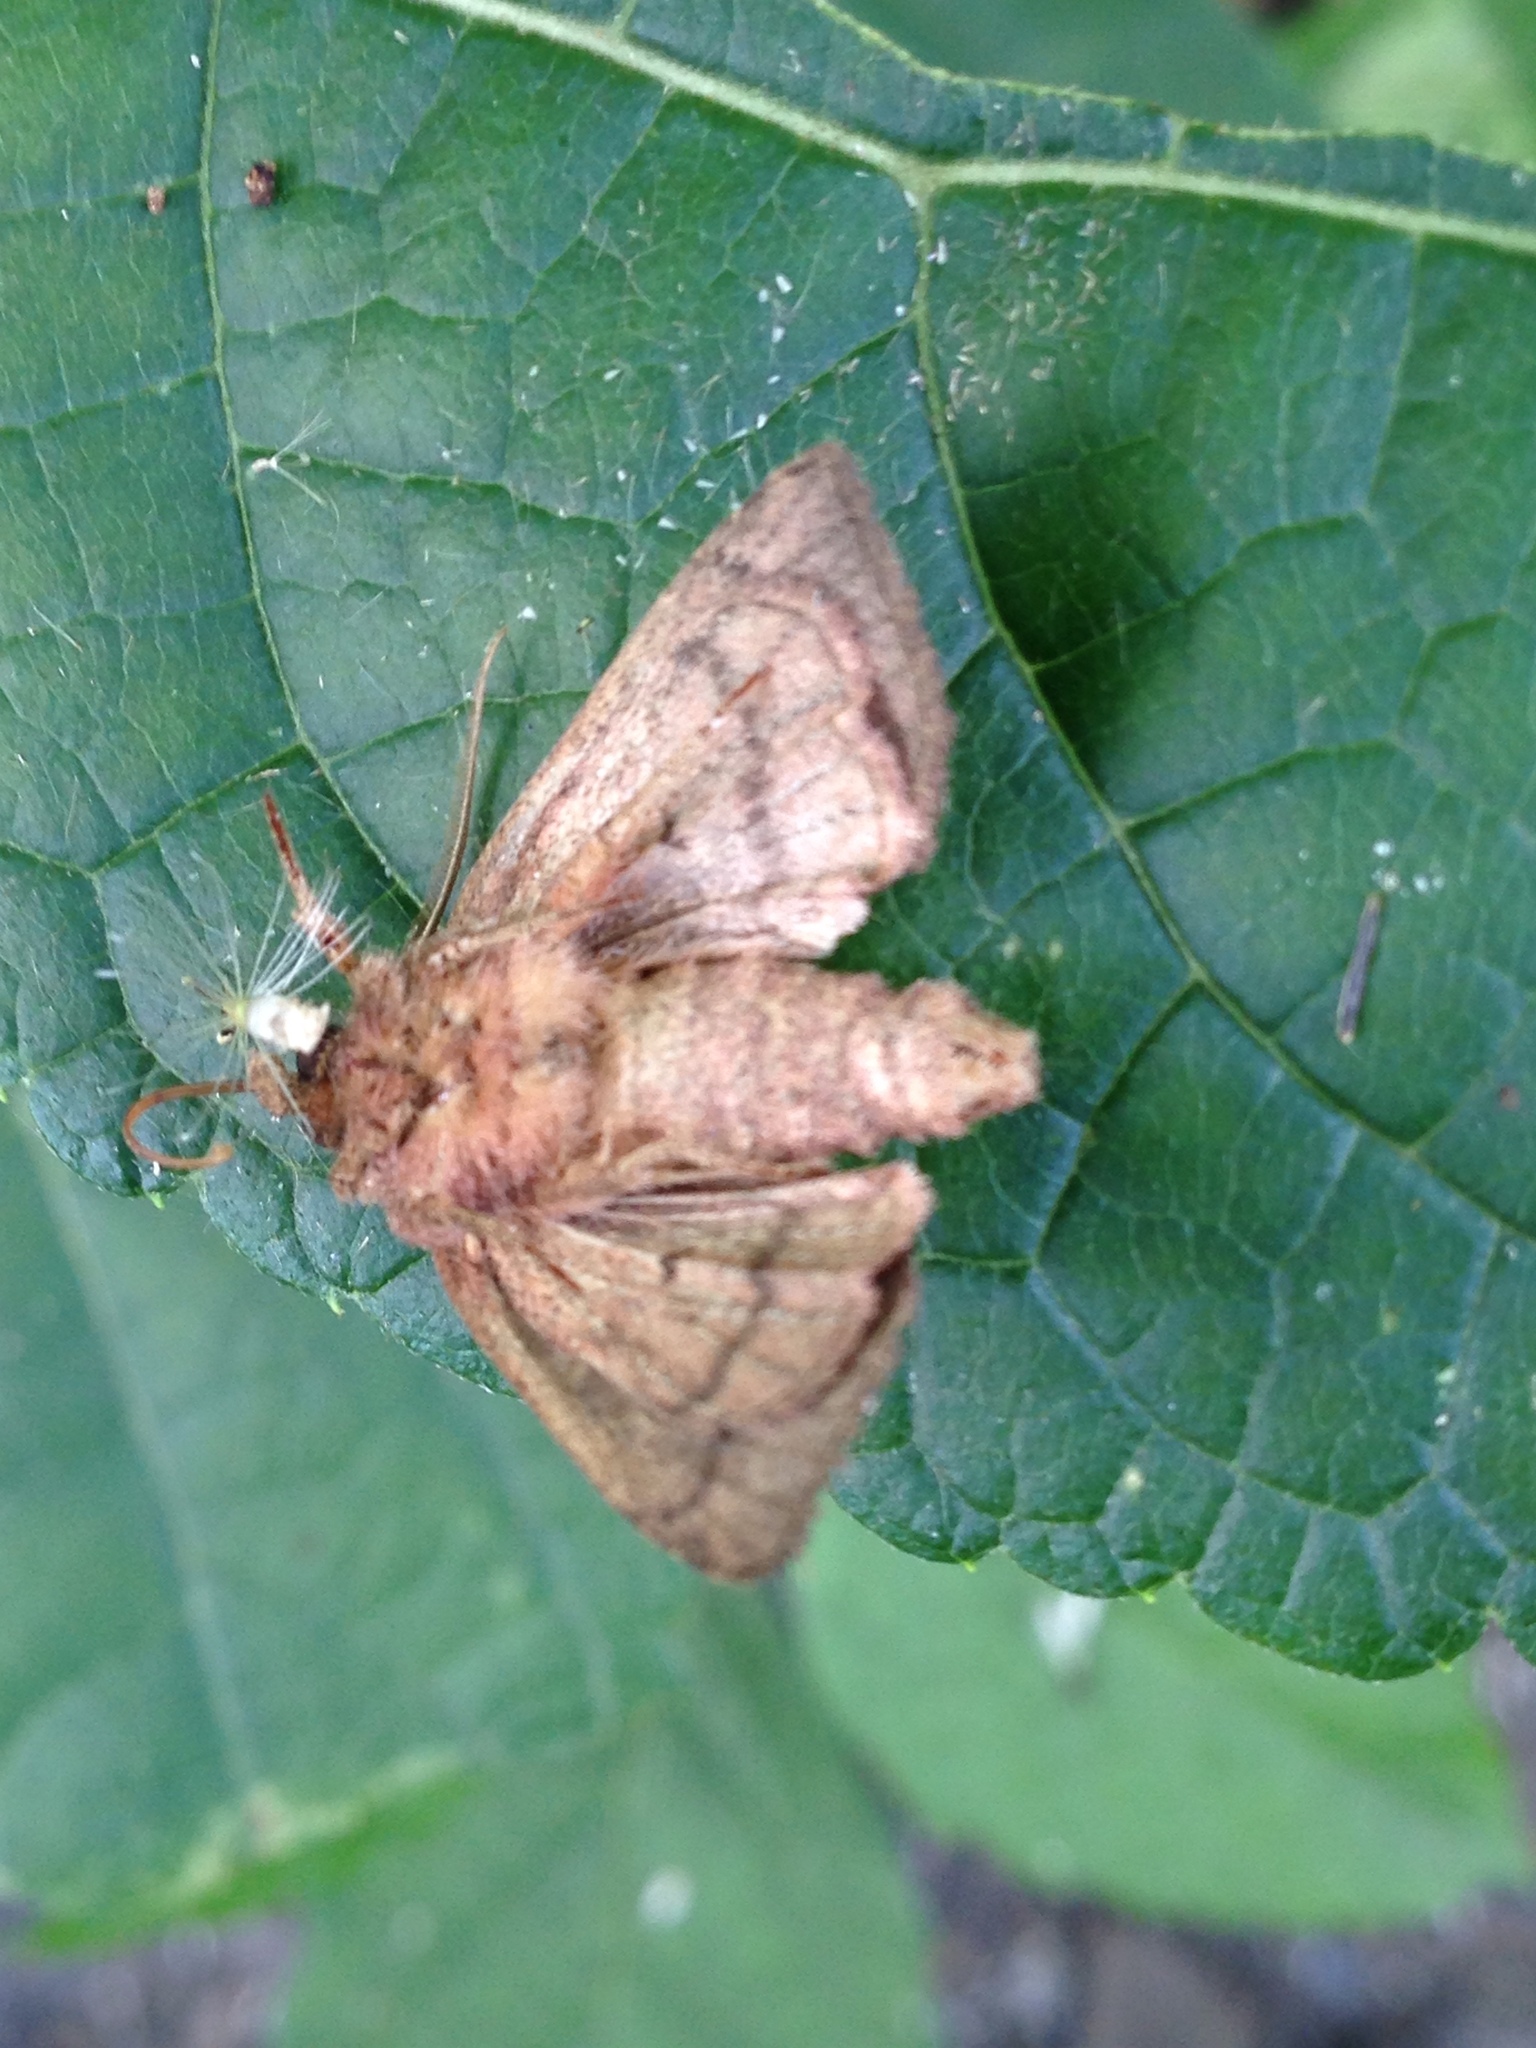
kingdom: Animalia
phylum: Arthropoda
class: Insecta
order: Lepidoptera
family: Noctuidae
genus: Tricholita
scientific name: Tricholita signata
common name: Signate quaker
